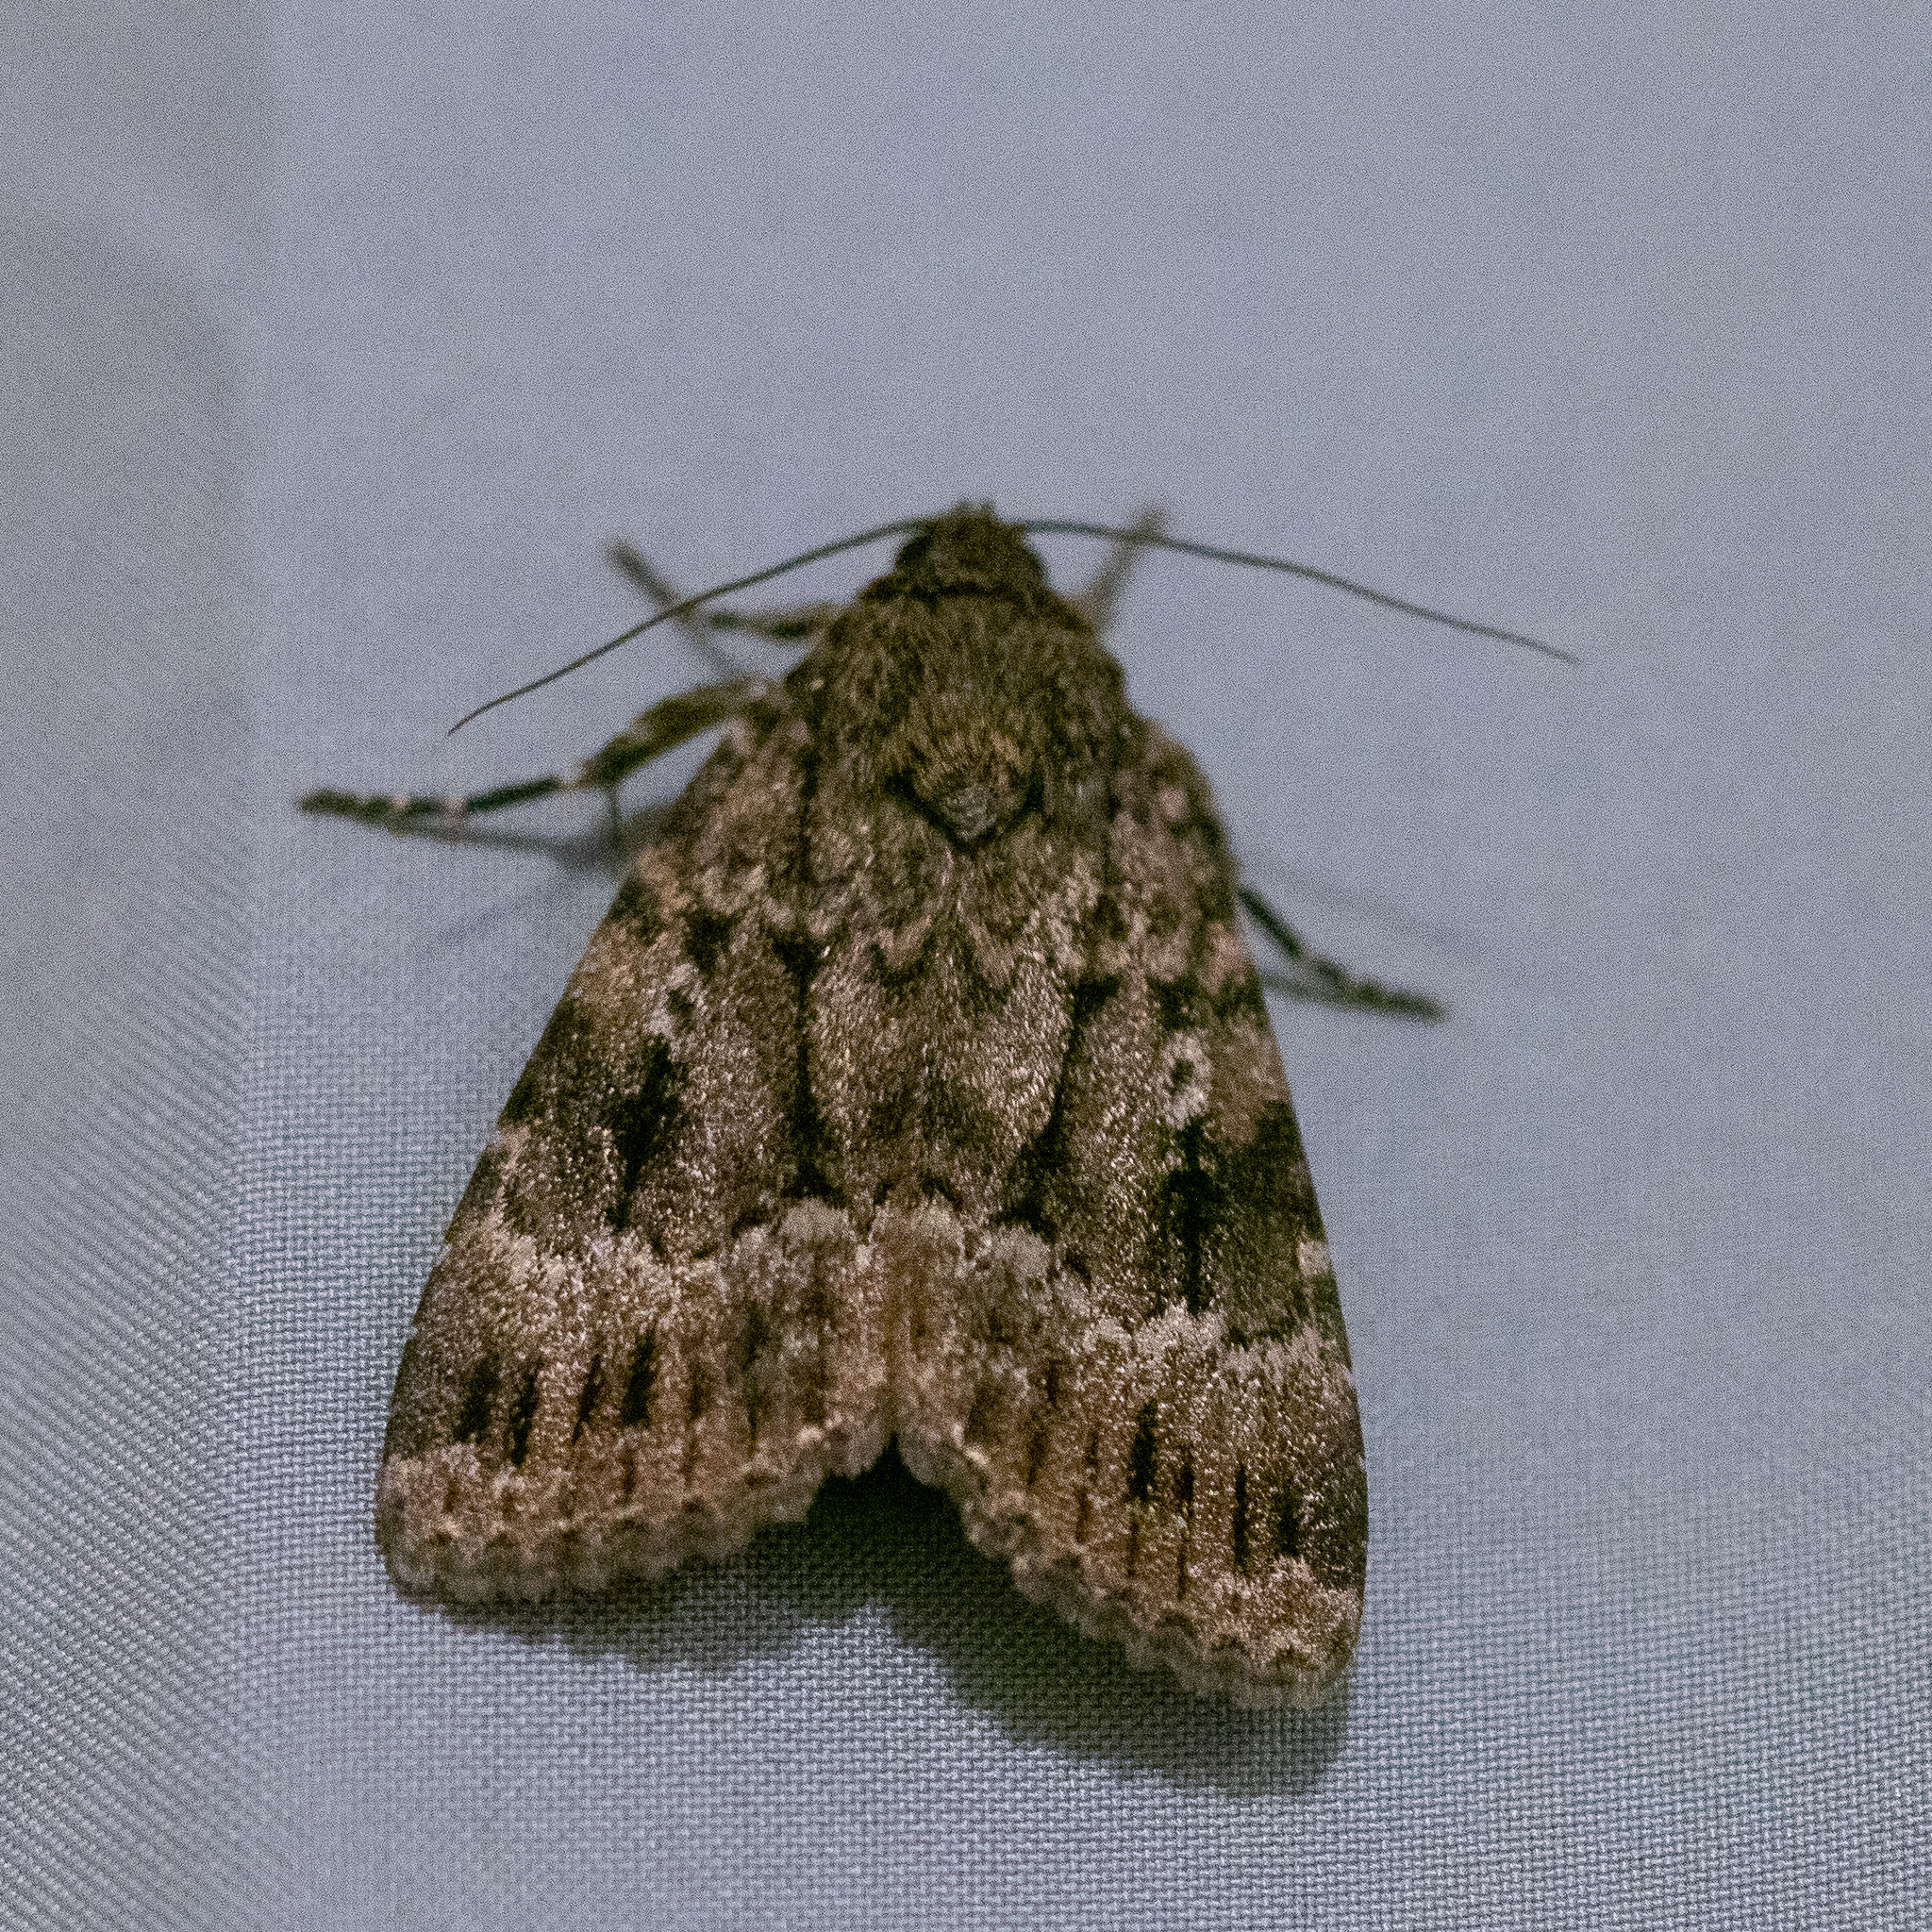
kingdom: Animalia
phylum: Arthropoda
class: Insecta
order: Lepidoptera
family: Noctuidae
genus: Amphipyra
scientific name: Amphipyra berbera
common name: Svensson's copper underwing
